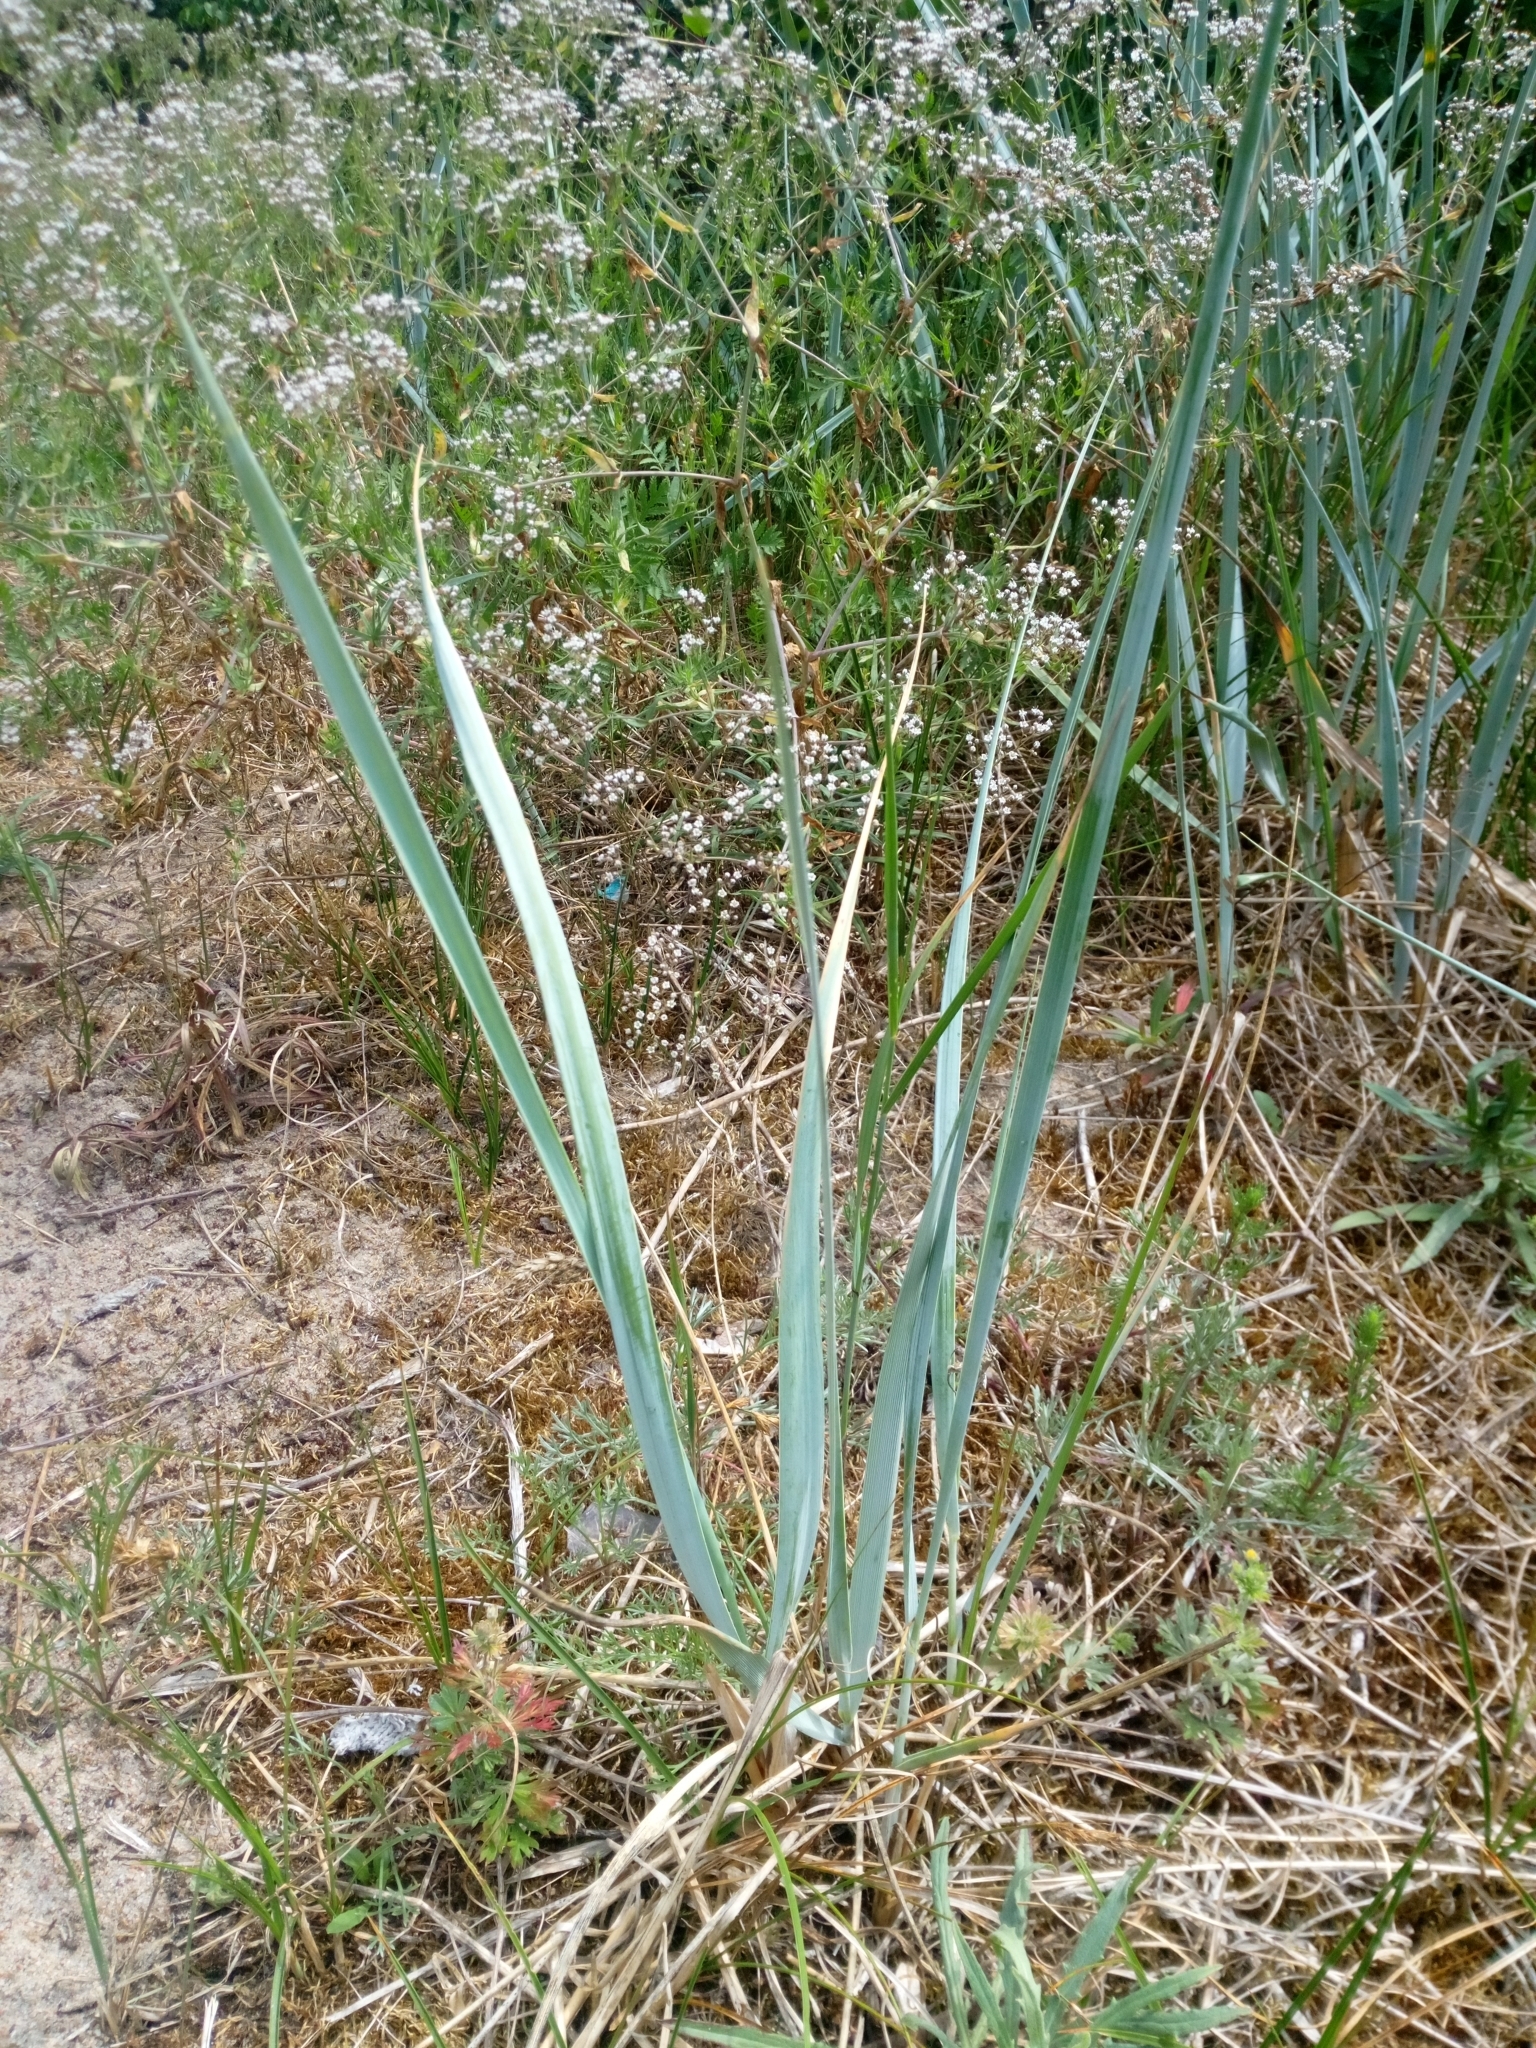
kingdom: Plantae
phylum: Tracheophyta
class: Liliopsida
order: Poales
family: Poaceae
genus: Leymus
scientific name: Leymus arenarius
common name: Lyme-grass
